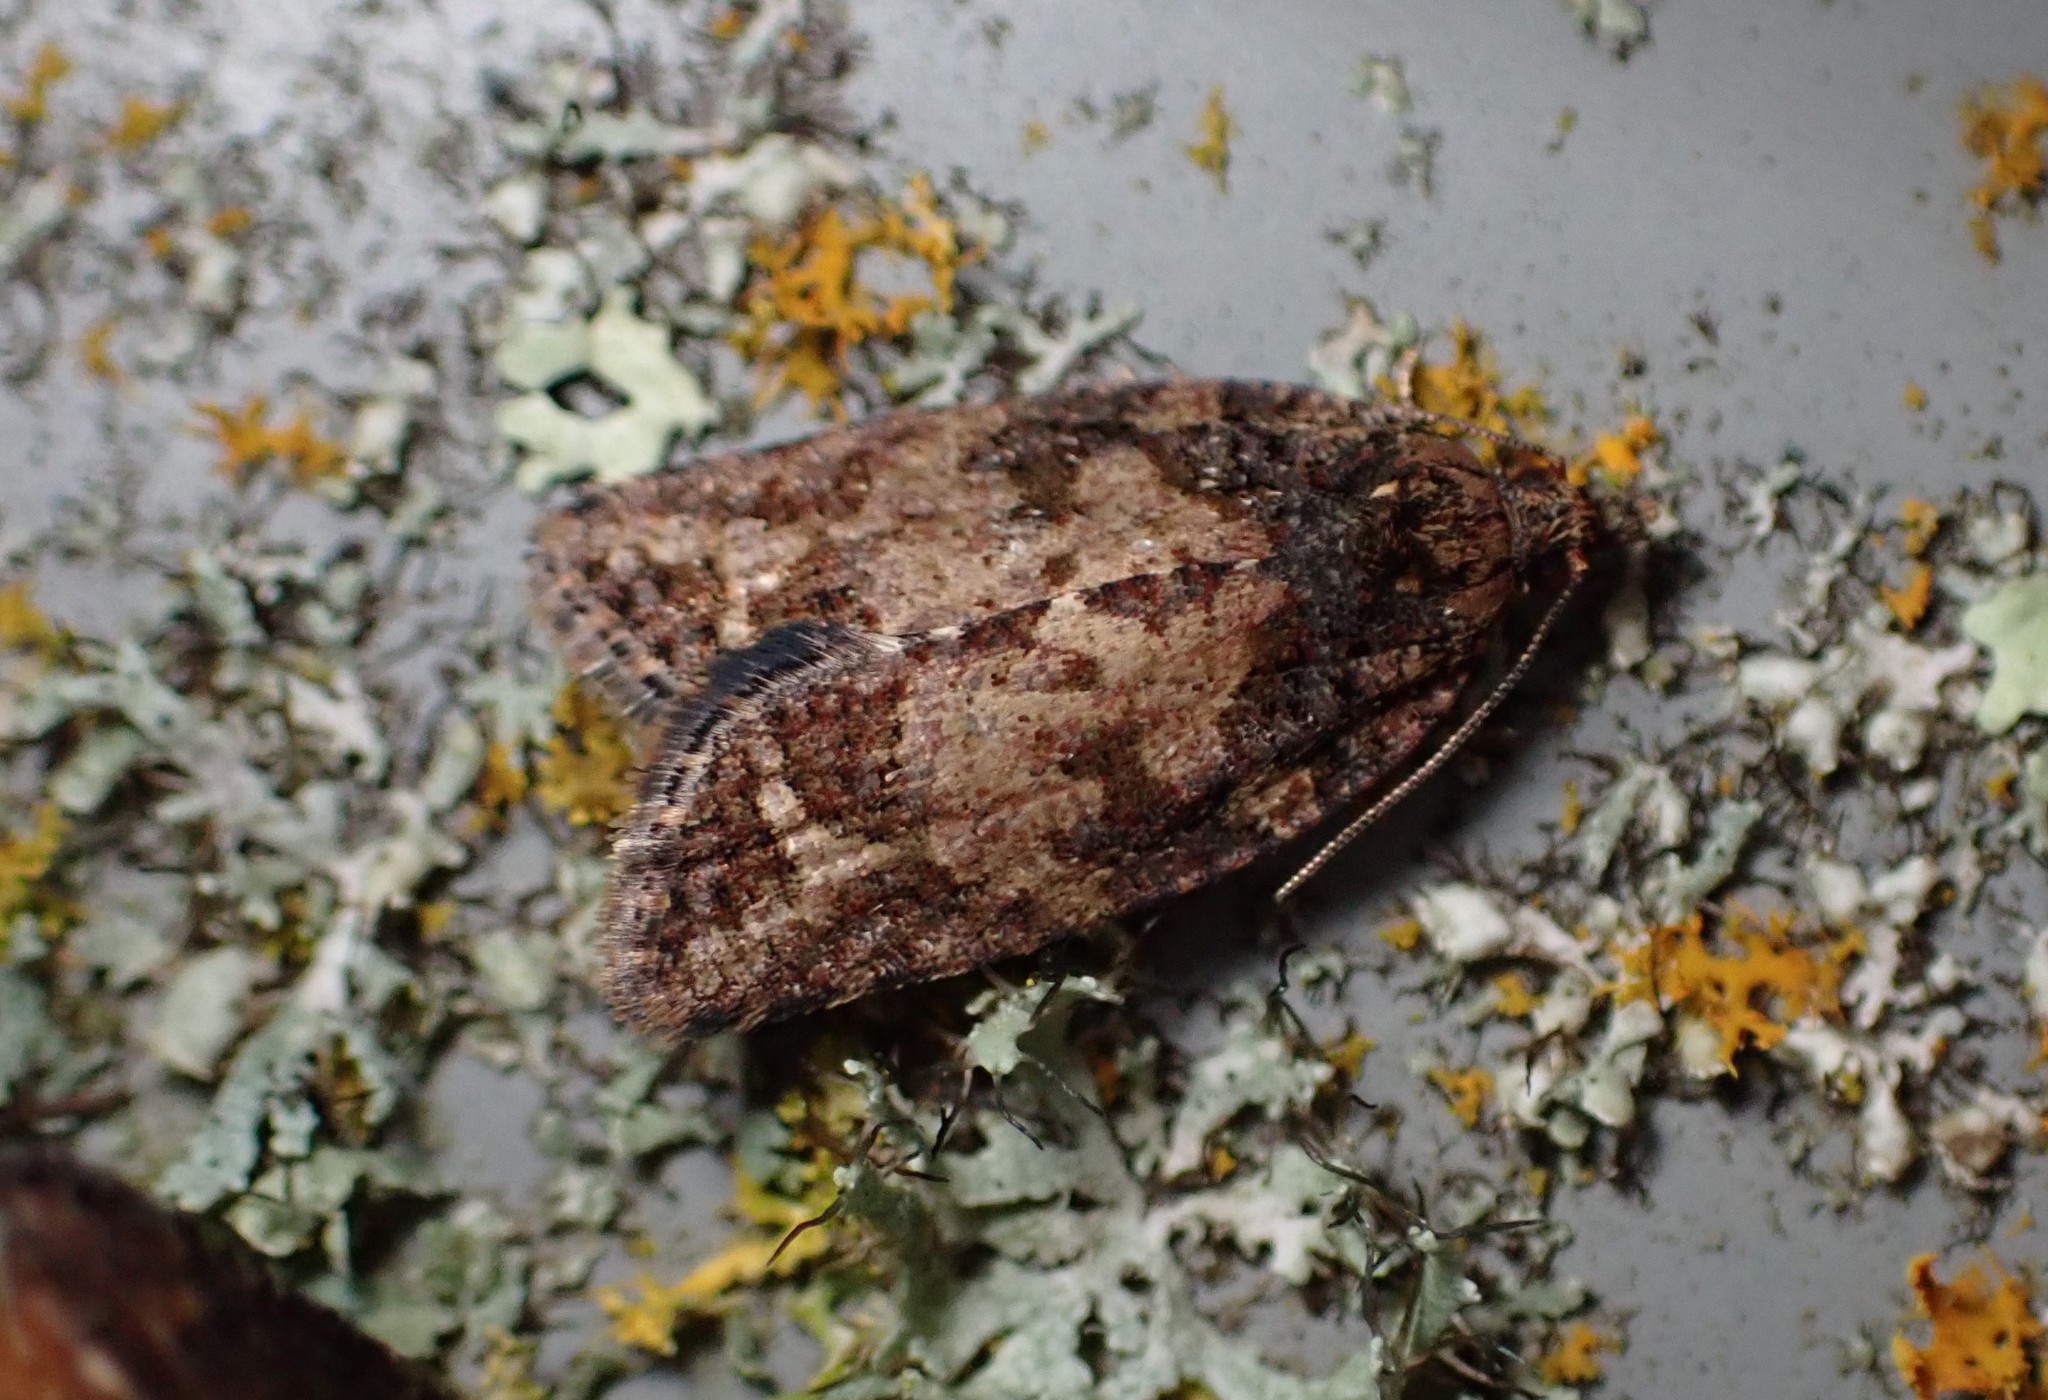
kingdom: Animalia
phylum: Arthropoda
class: Insecta
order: Lepidoptera
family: Tortricidae
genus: Capua
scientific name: Capua intractana
